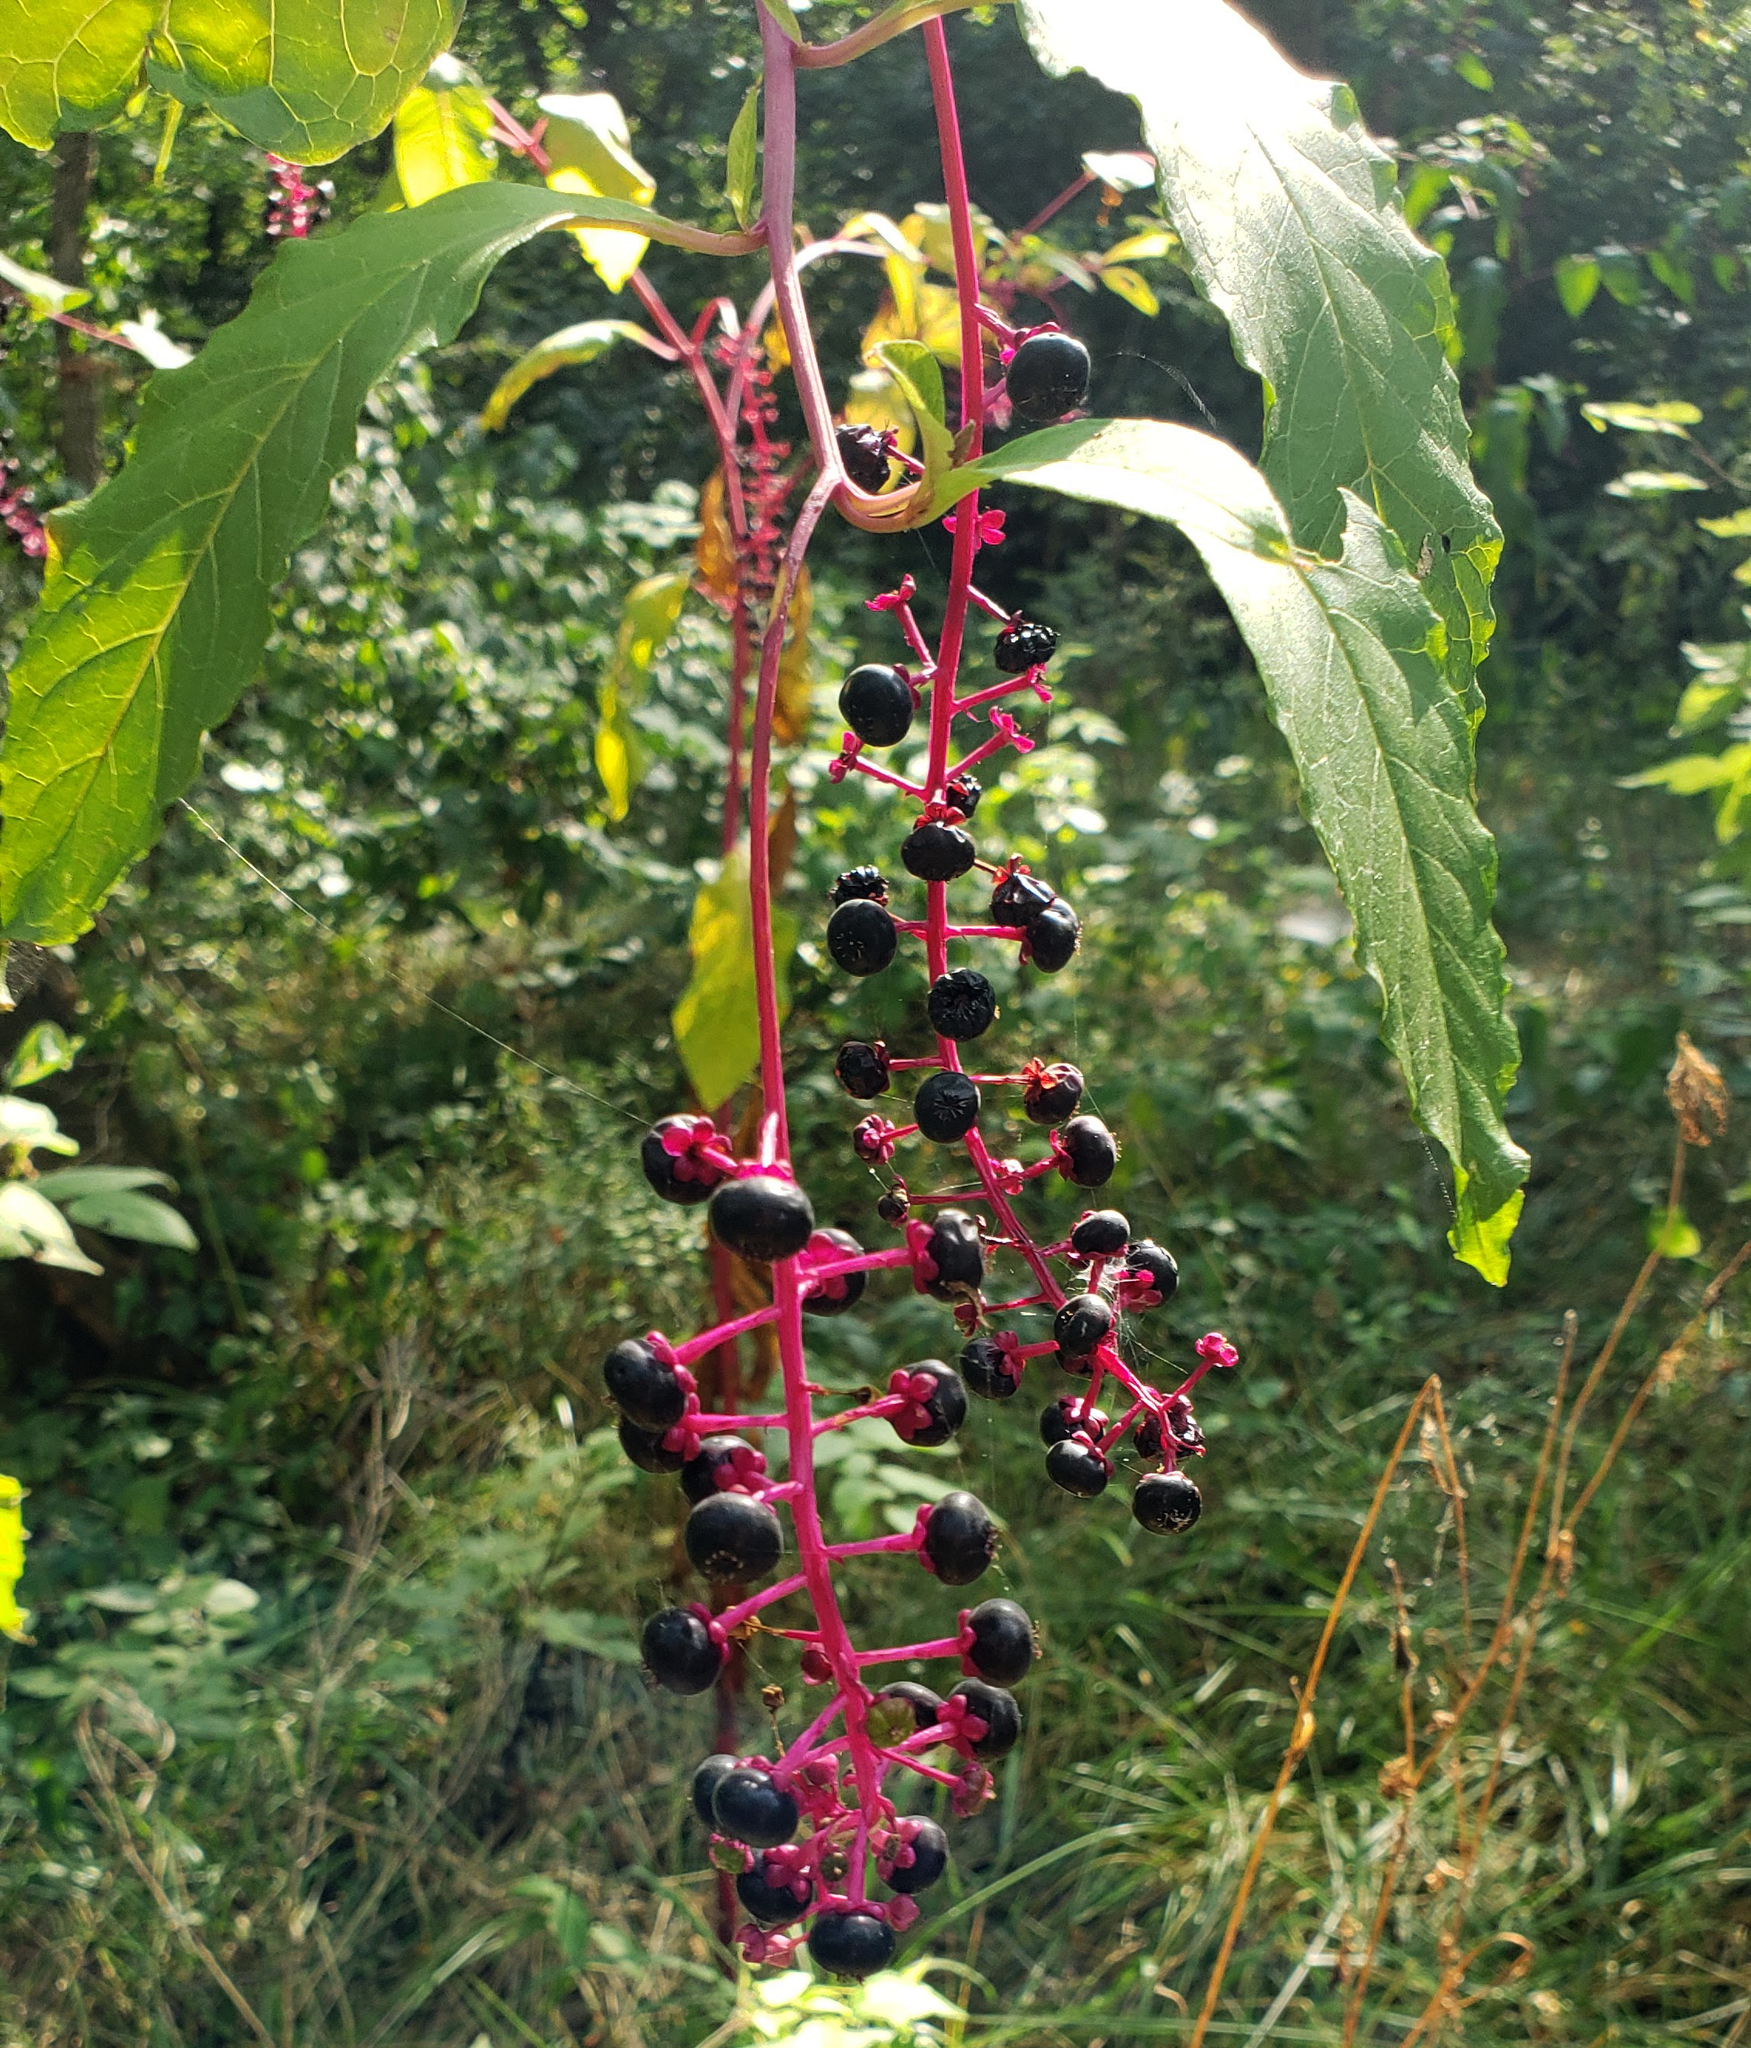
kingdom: Plantae
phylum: Tracheophyta
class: Magnoliopsida
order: Caryophyllales
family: Phytolaccaceae
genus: Phytolacca
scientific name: Phytolacca americana
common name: American pokeweed
